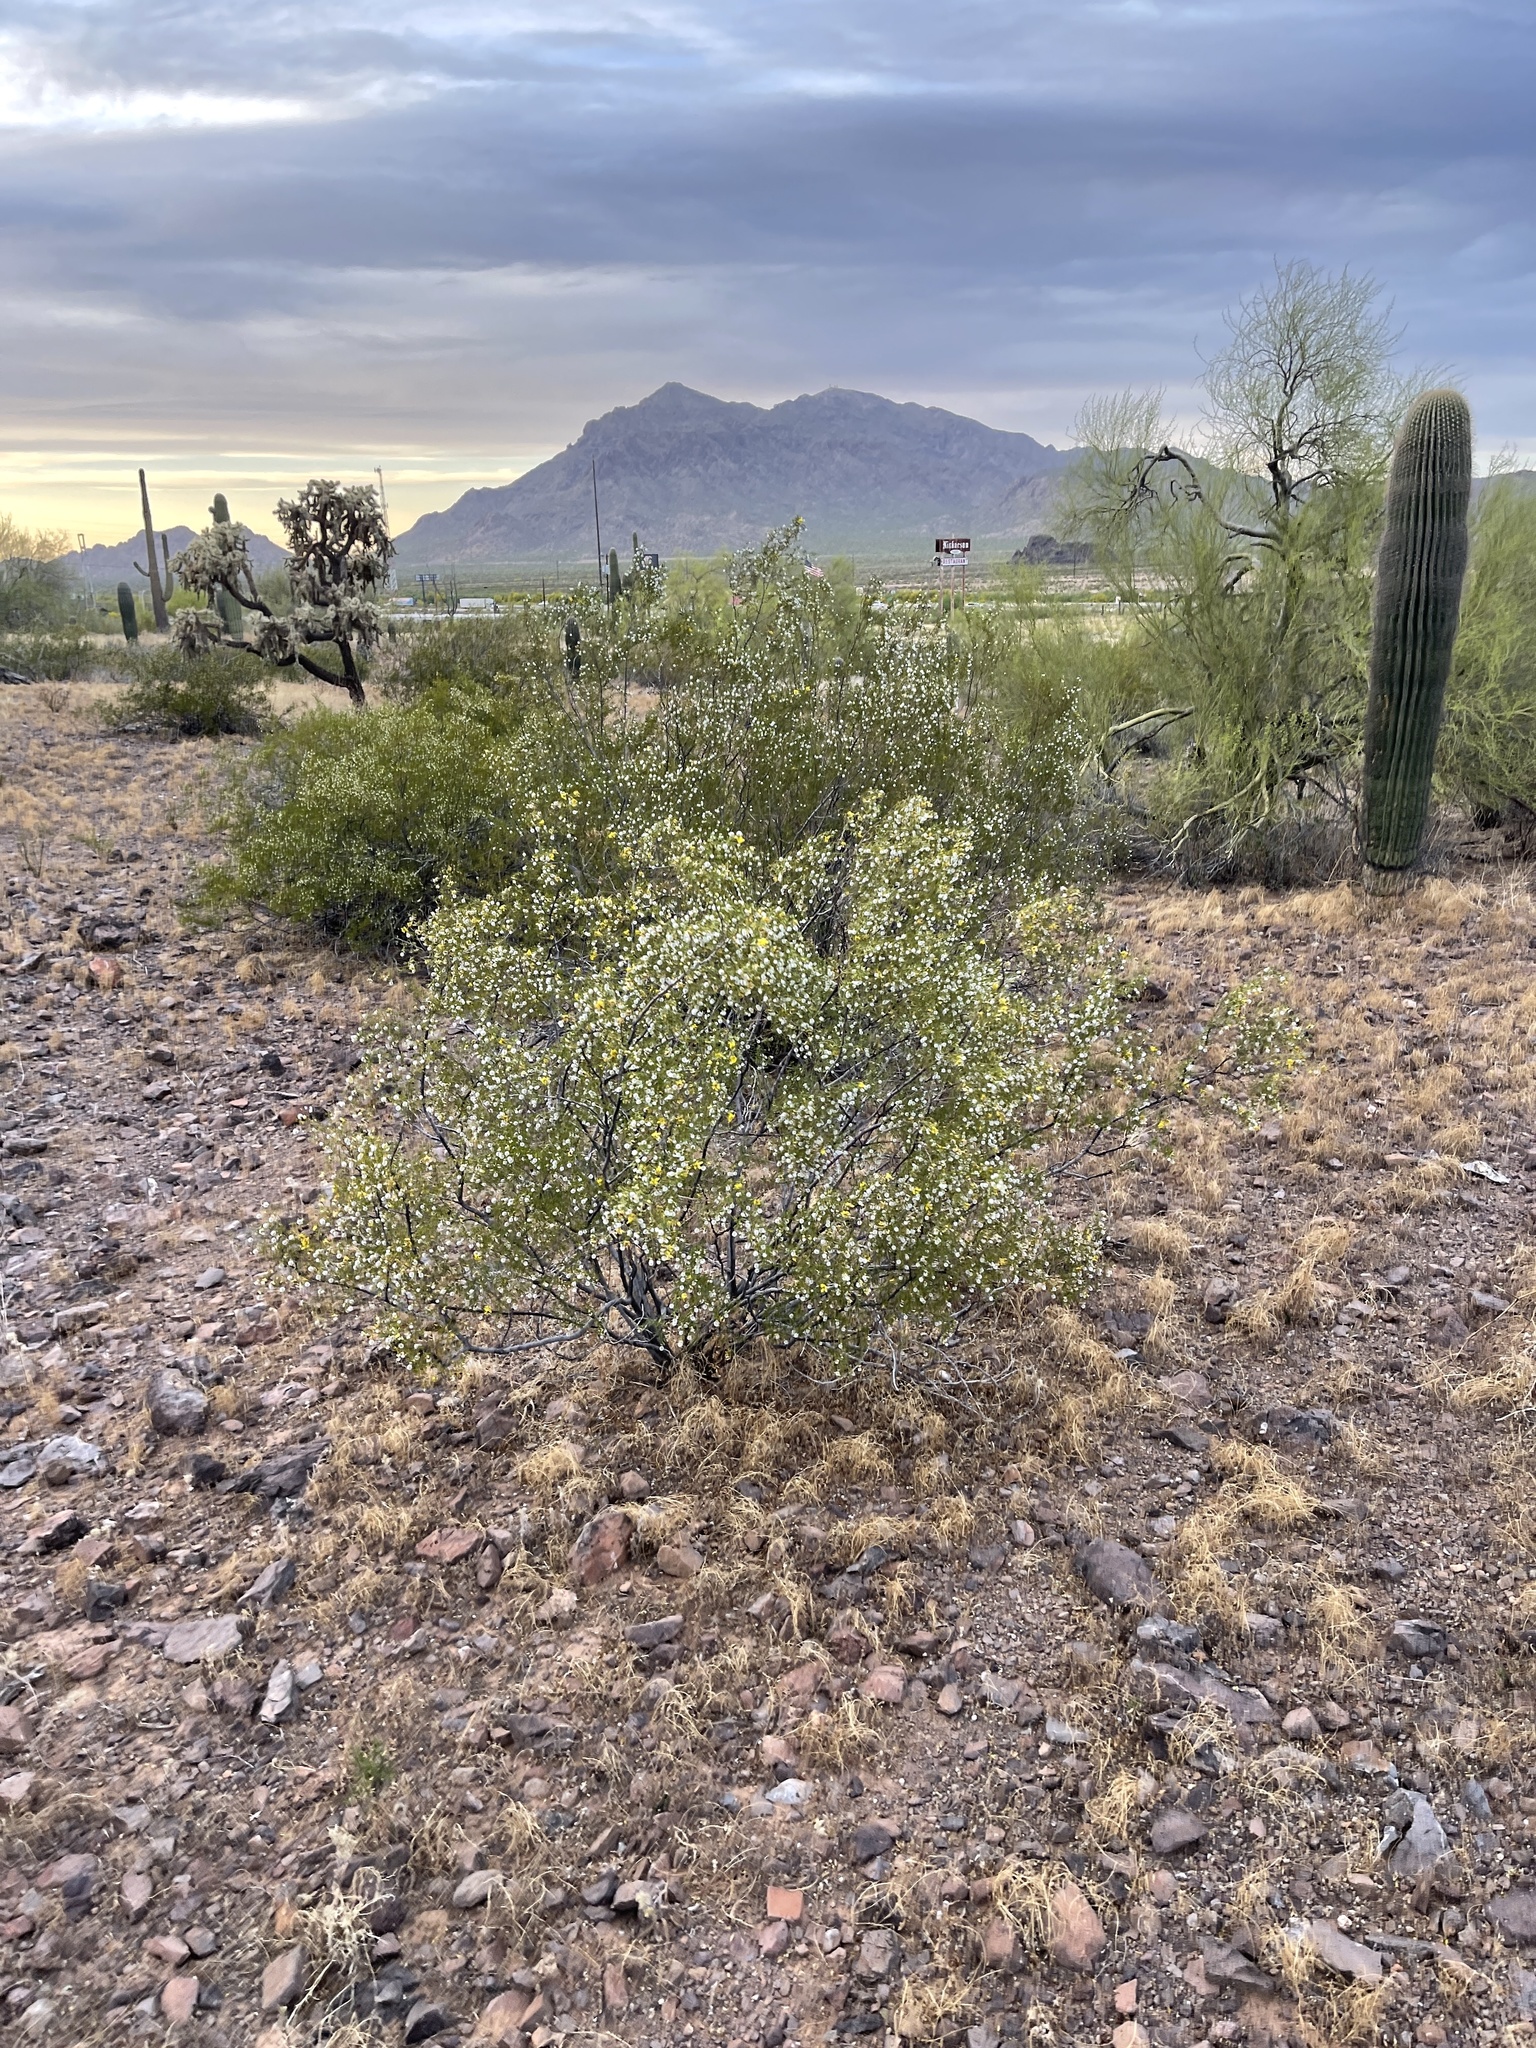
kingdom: Plantae
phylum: Tracheophyta
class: Magnoliopsida
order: Zygophyllales
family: Zygophyllaceae
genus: Larrea
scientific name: Larrea tridentata
